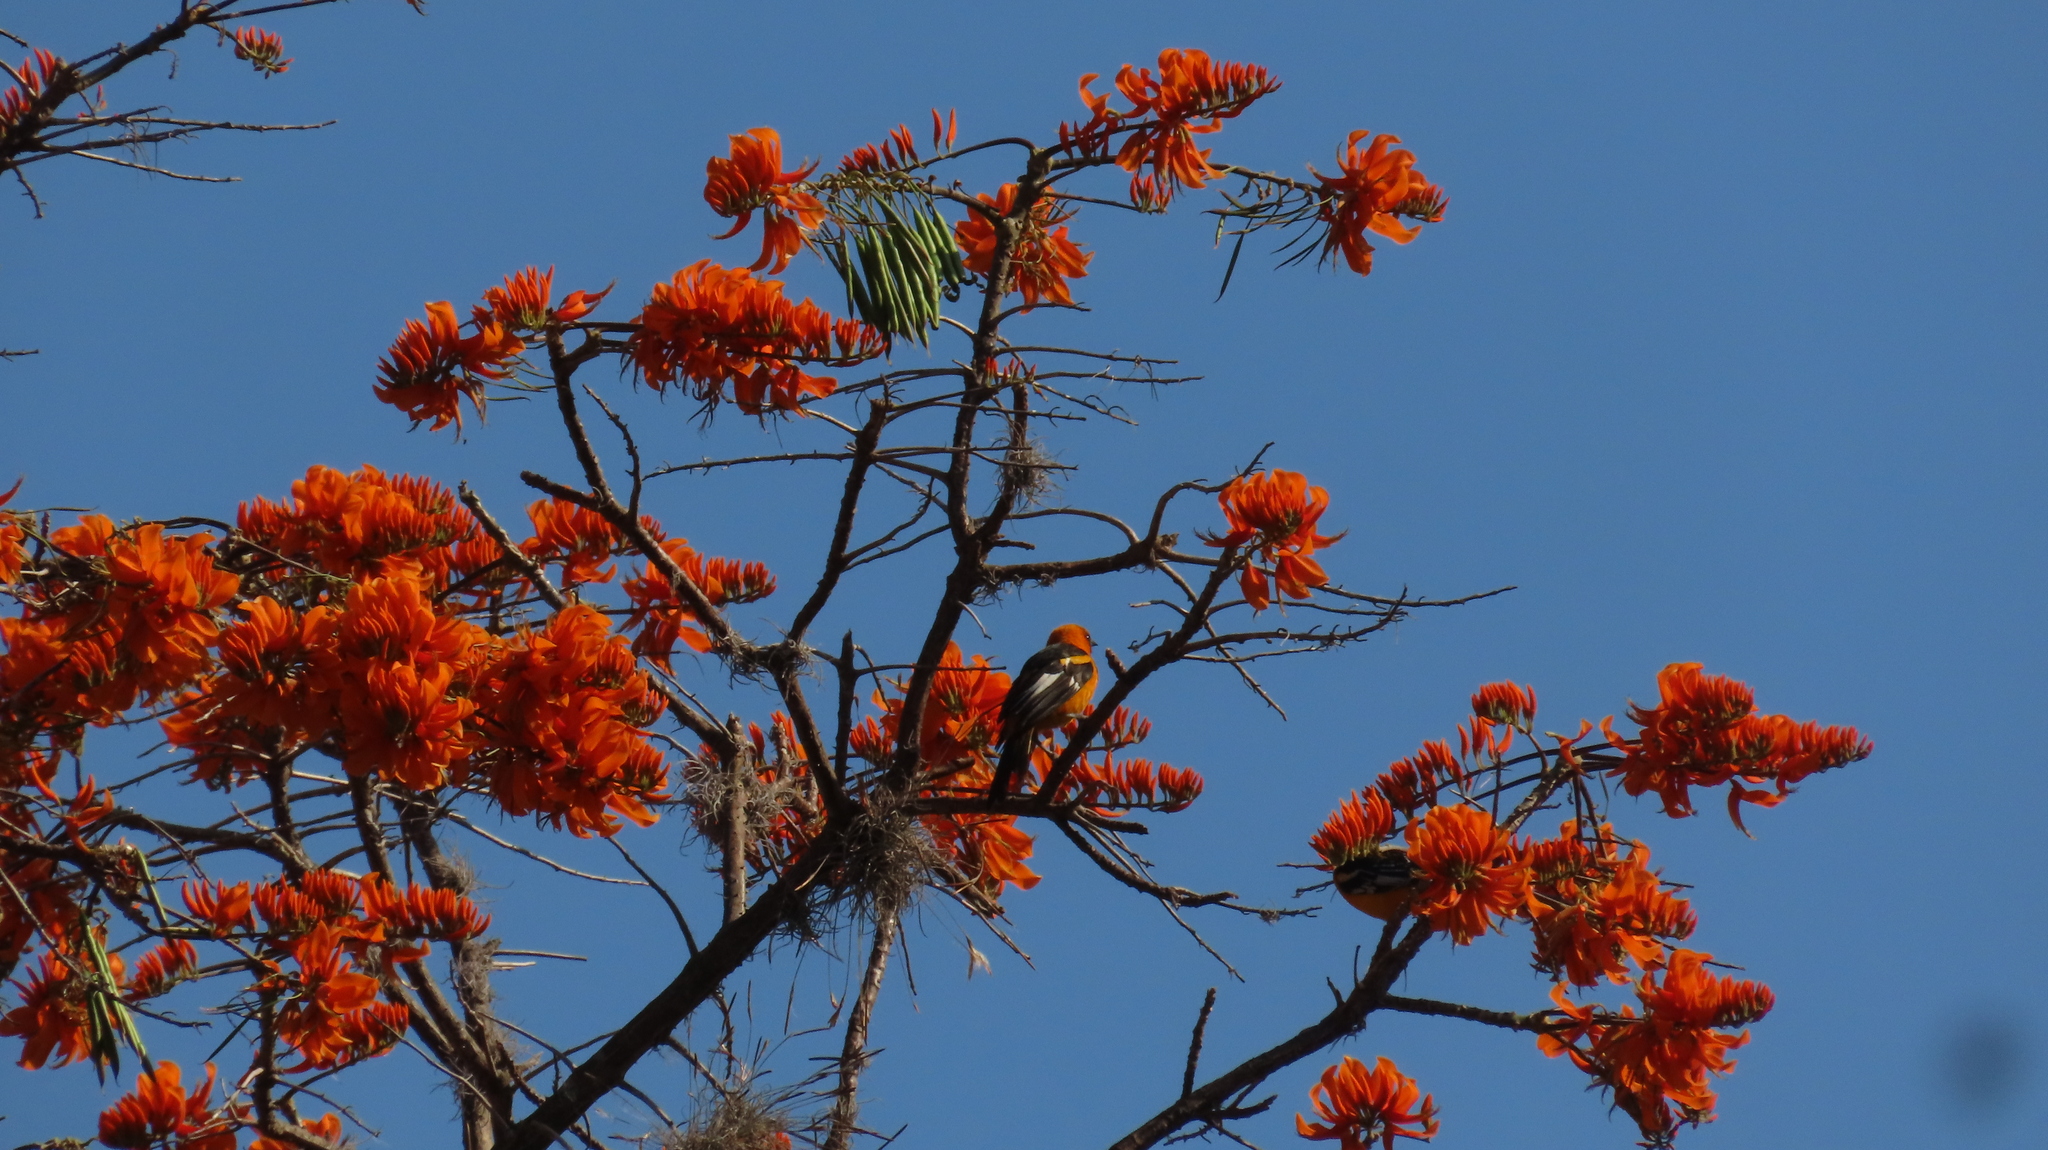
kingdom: Animalia
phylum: Chordata
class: Aves
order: Passeriformes
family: Icteridae
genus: Icterus
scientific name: Icterus pectoralis
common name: Spot-breasted oriole
